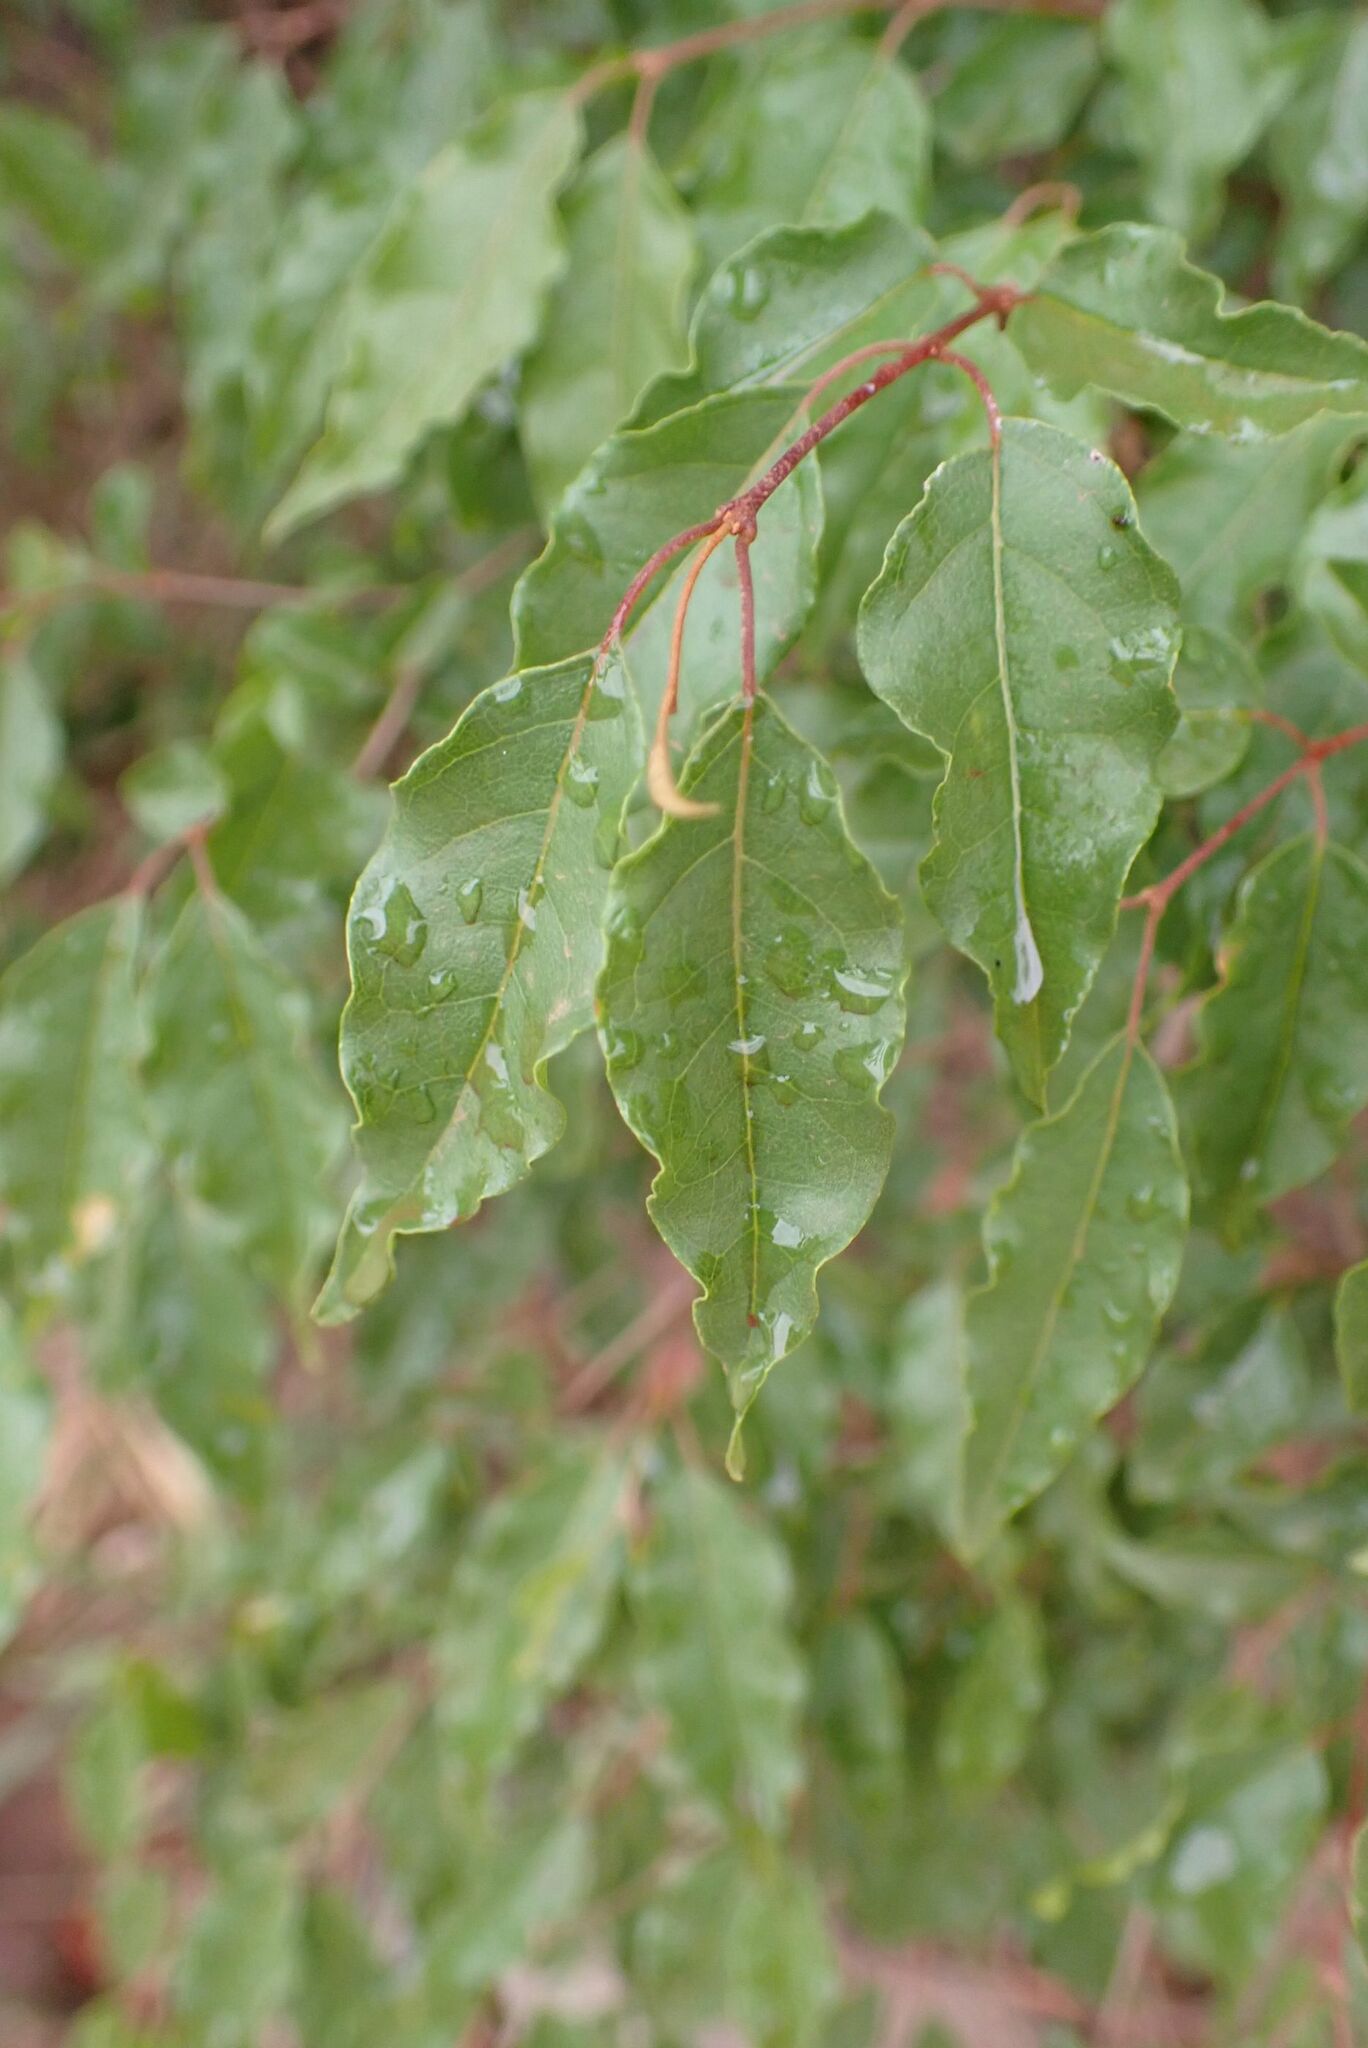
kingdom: Plantae
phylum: Tracheophyta
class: Magnoliopsida
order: Myrtales
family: Combretaceae
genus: Combretum
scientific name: Combretum padoides
